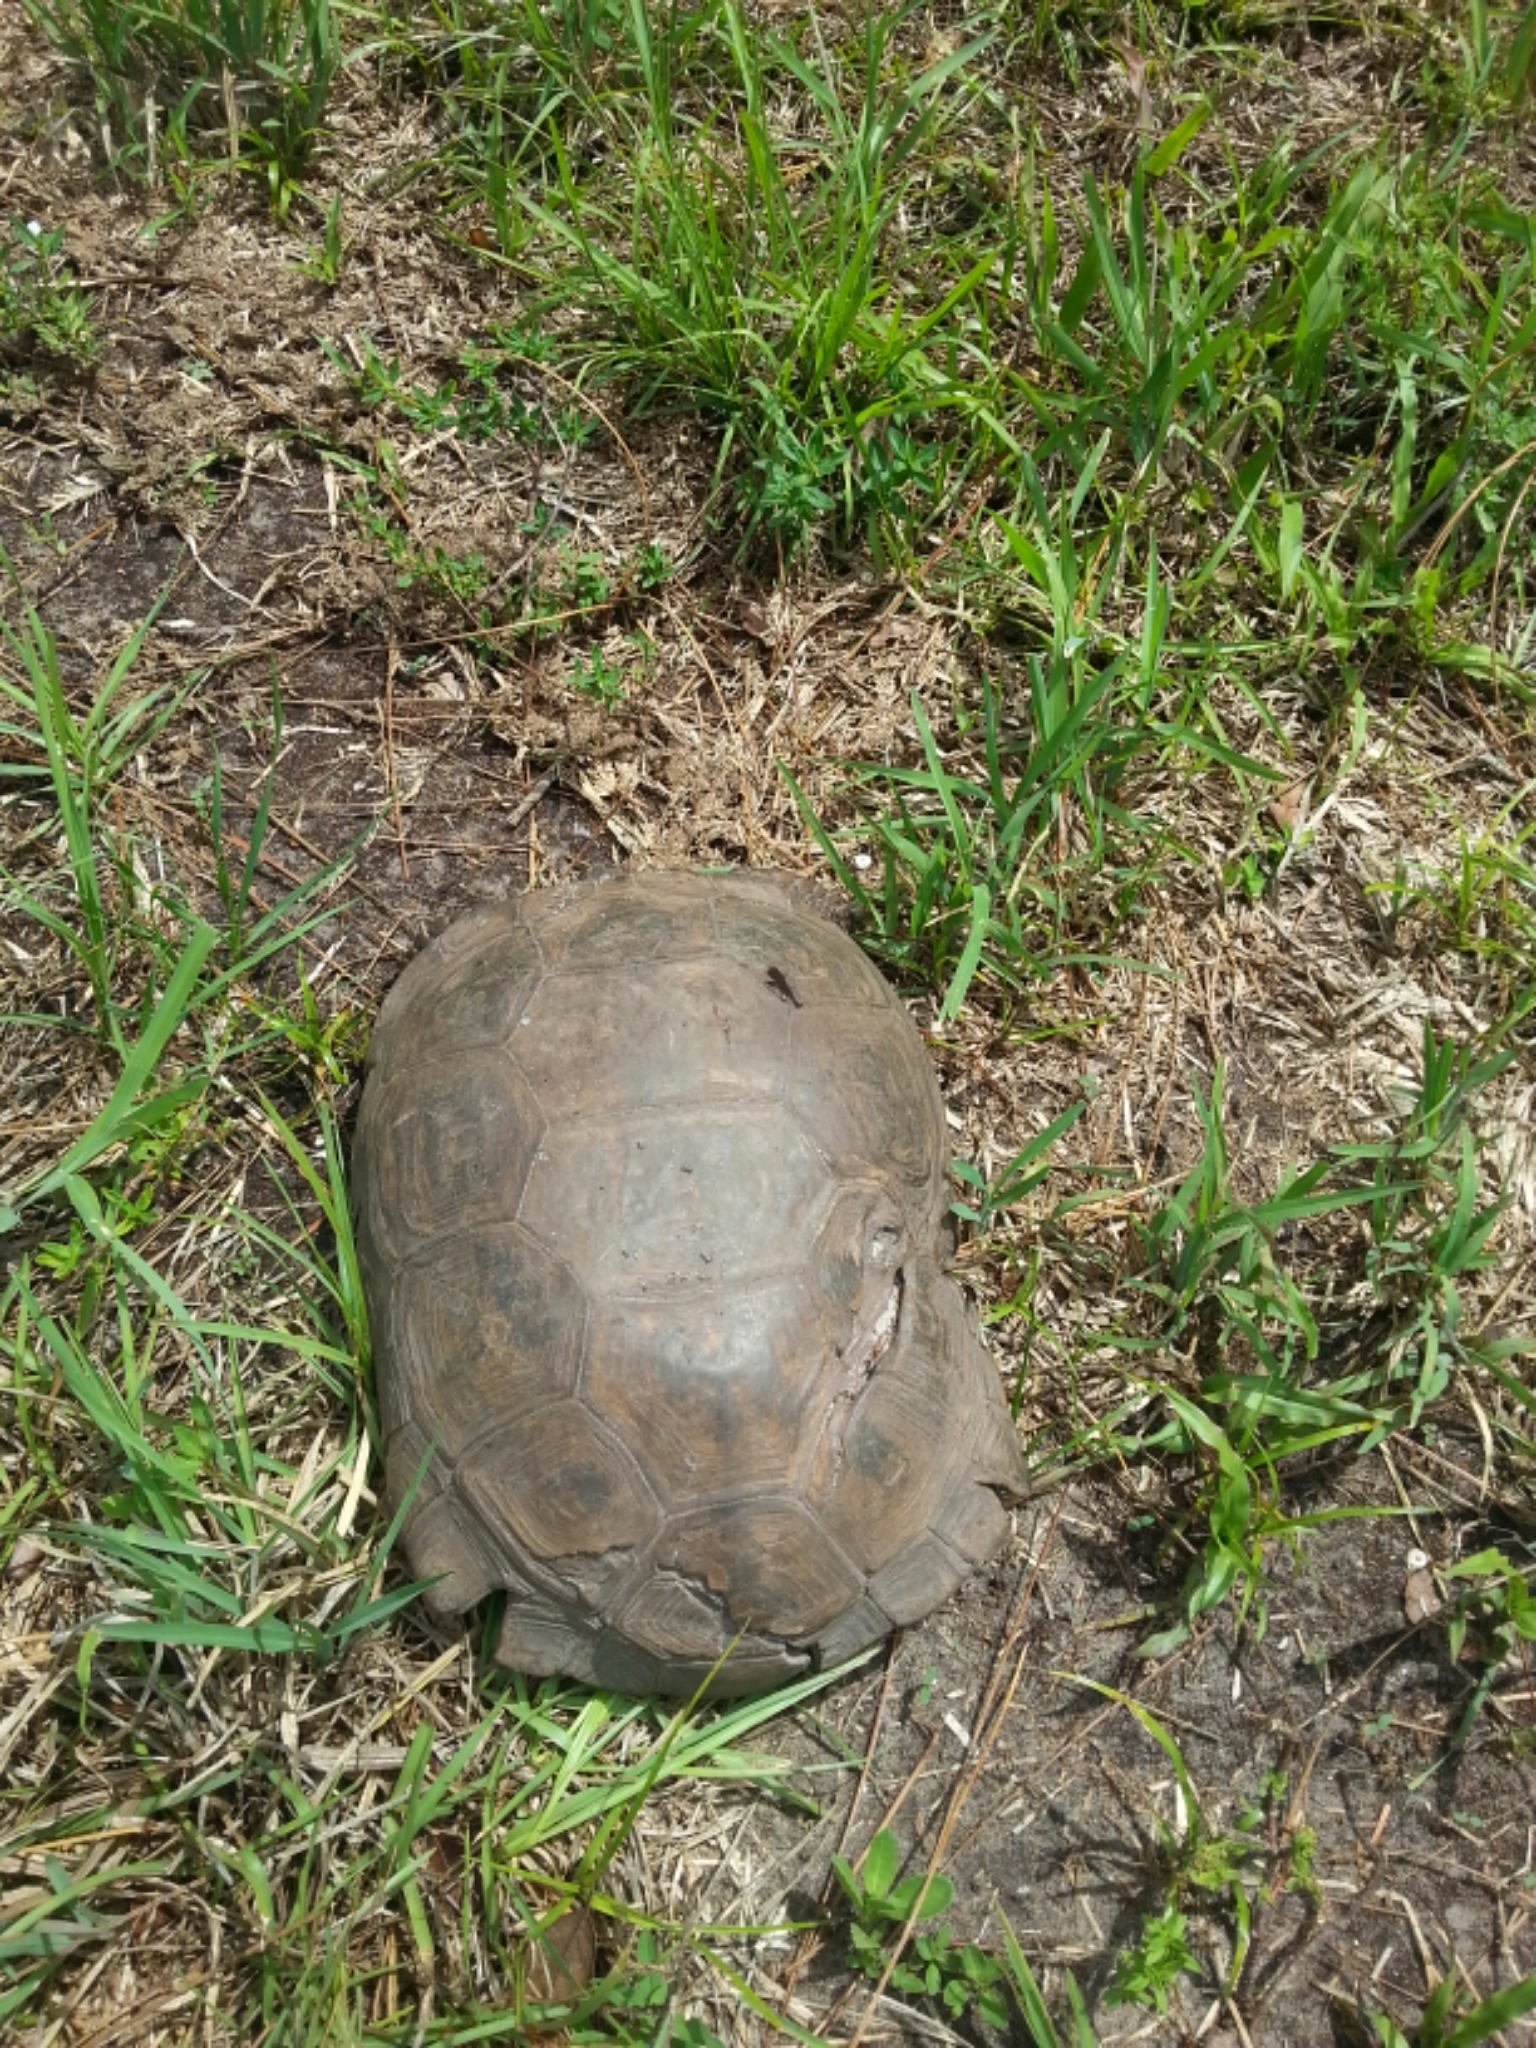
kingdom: Animalia
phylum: Chordata
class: Testudines
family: Testudinidae
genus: Gopherus
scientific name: Gopherus polyphemus
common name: Florida gopher tortoise
